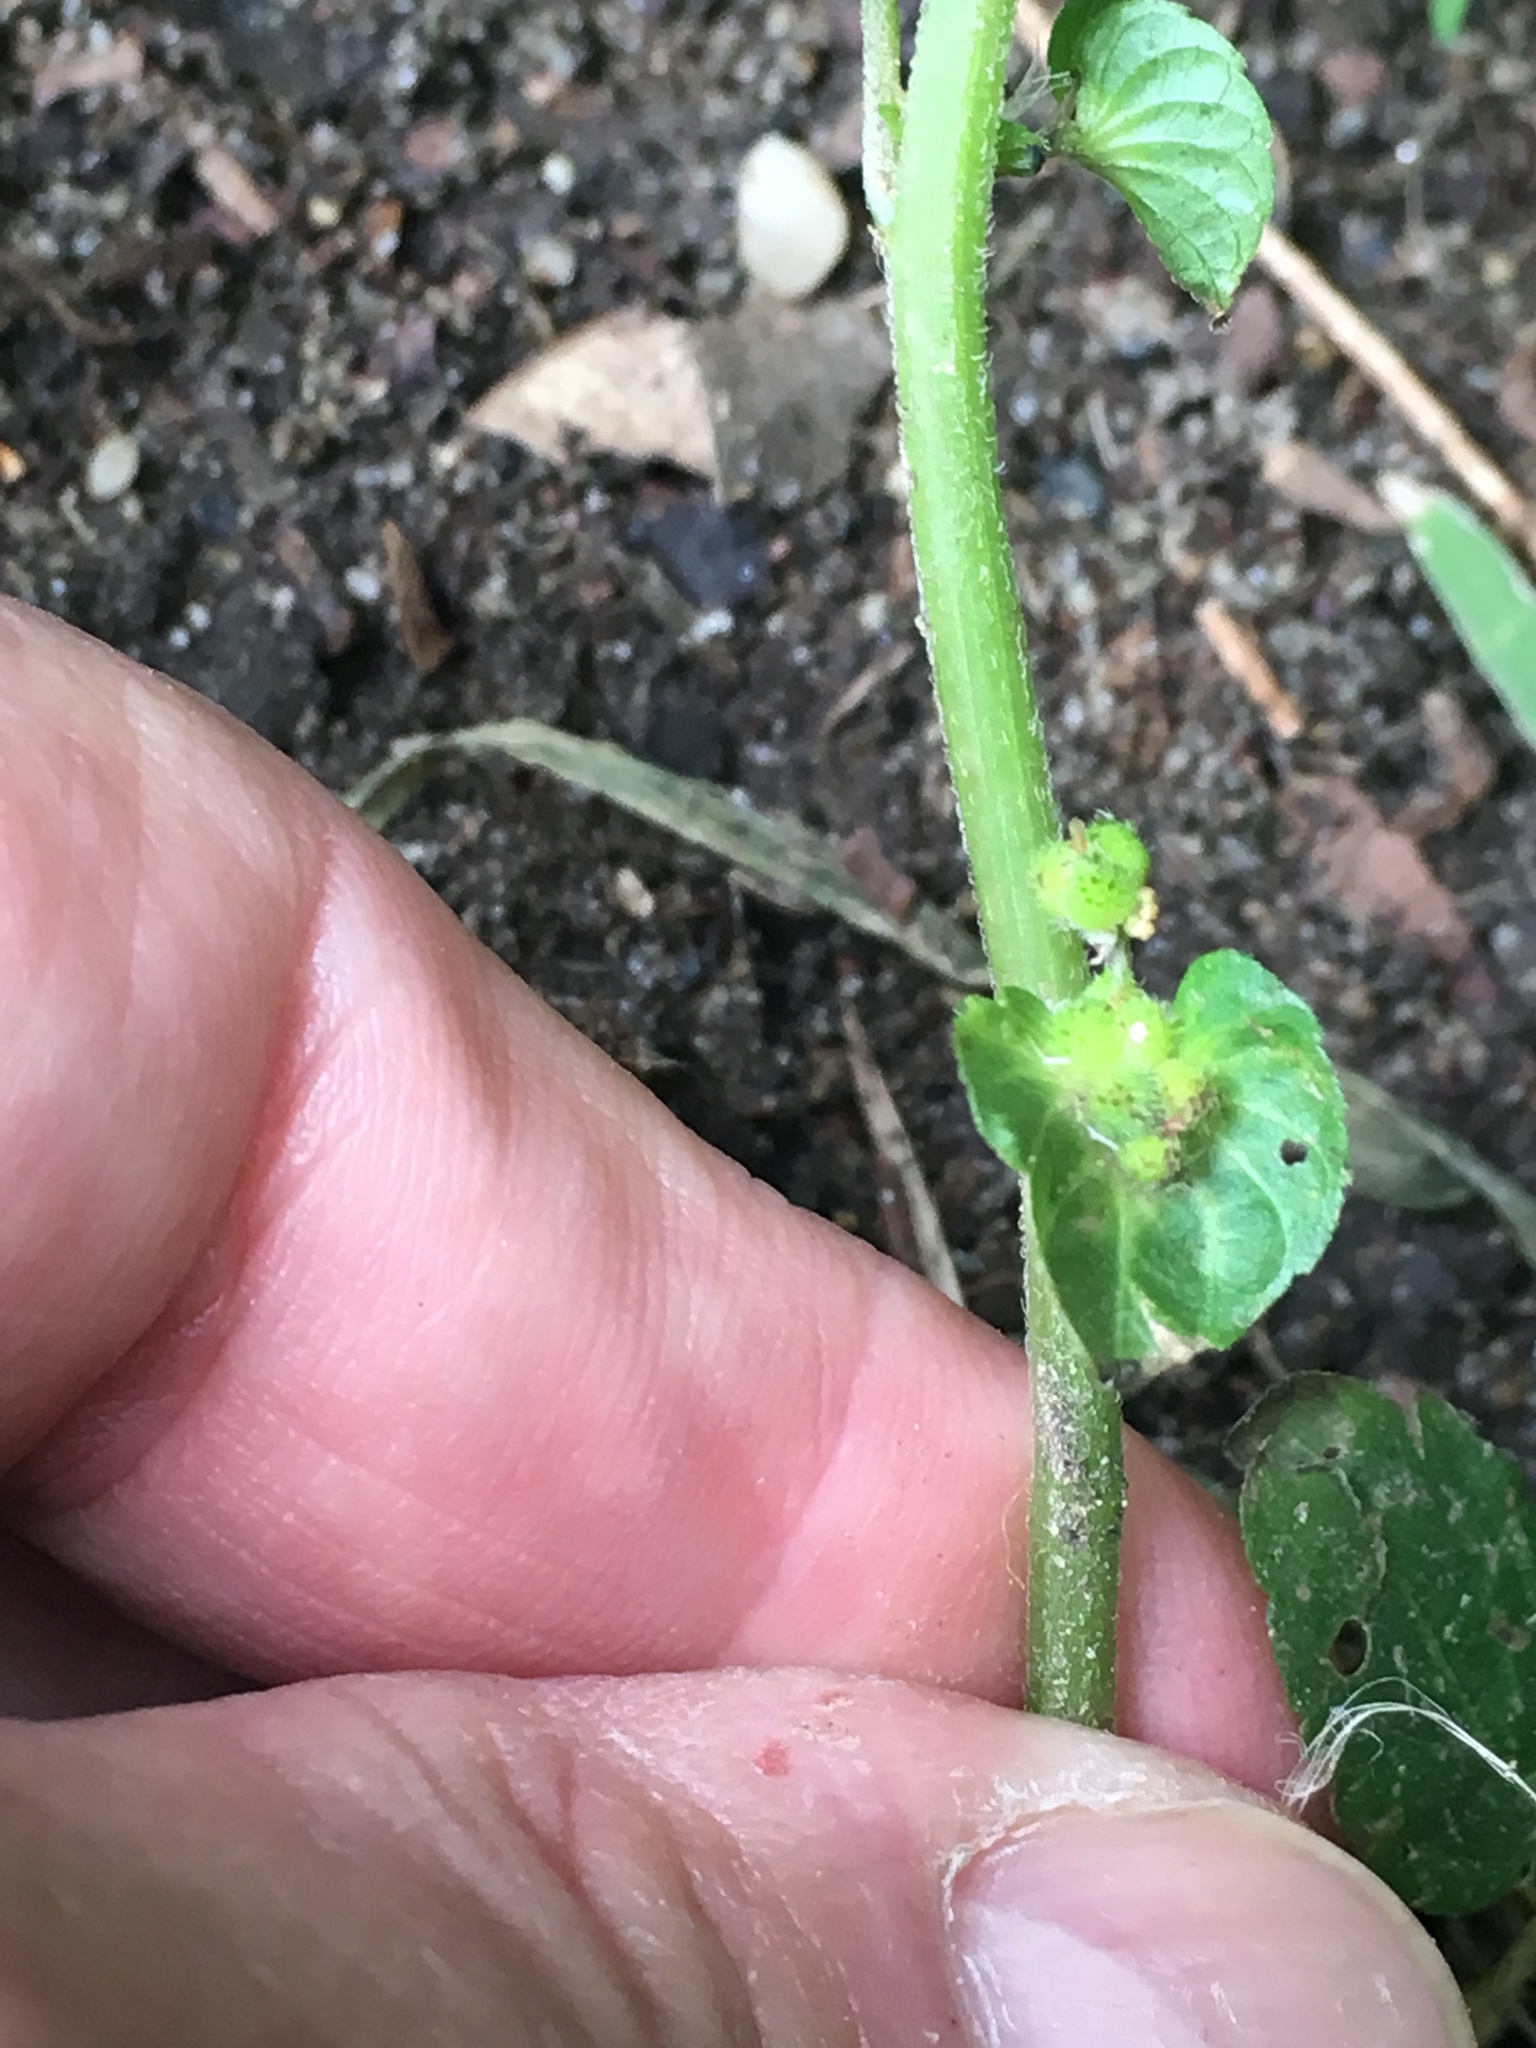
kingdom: Plantae
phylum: Tracheophyta
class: Magnoliopsida
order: Malpighiales
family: Euphorbiaceae
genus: Acalypha
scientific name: Acalypha australis
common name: Asian copperleaf
